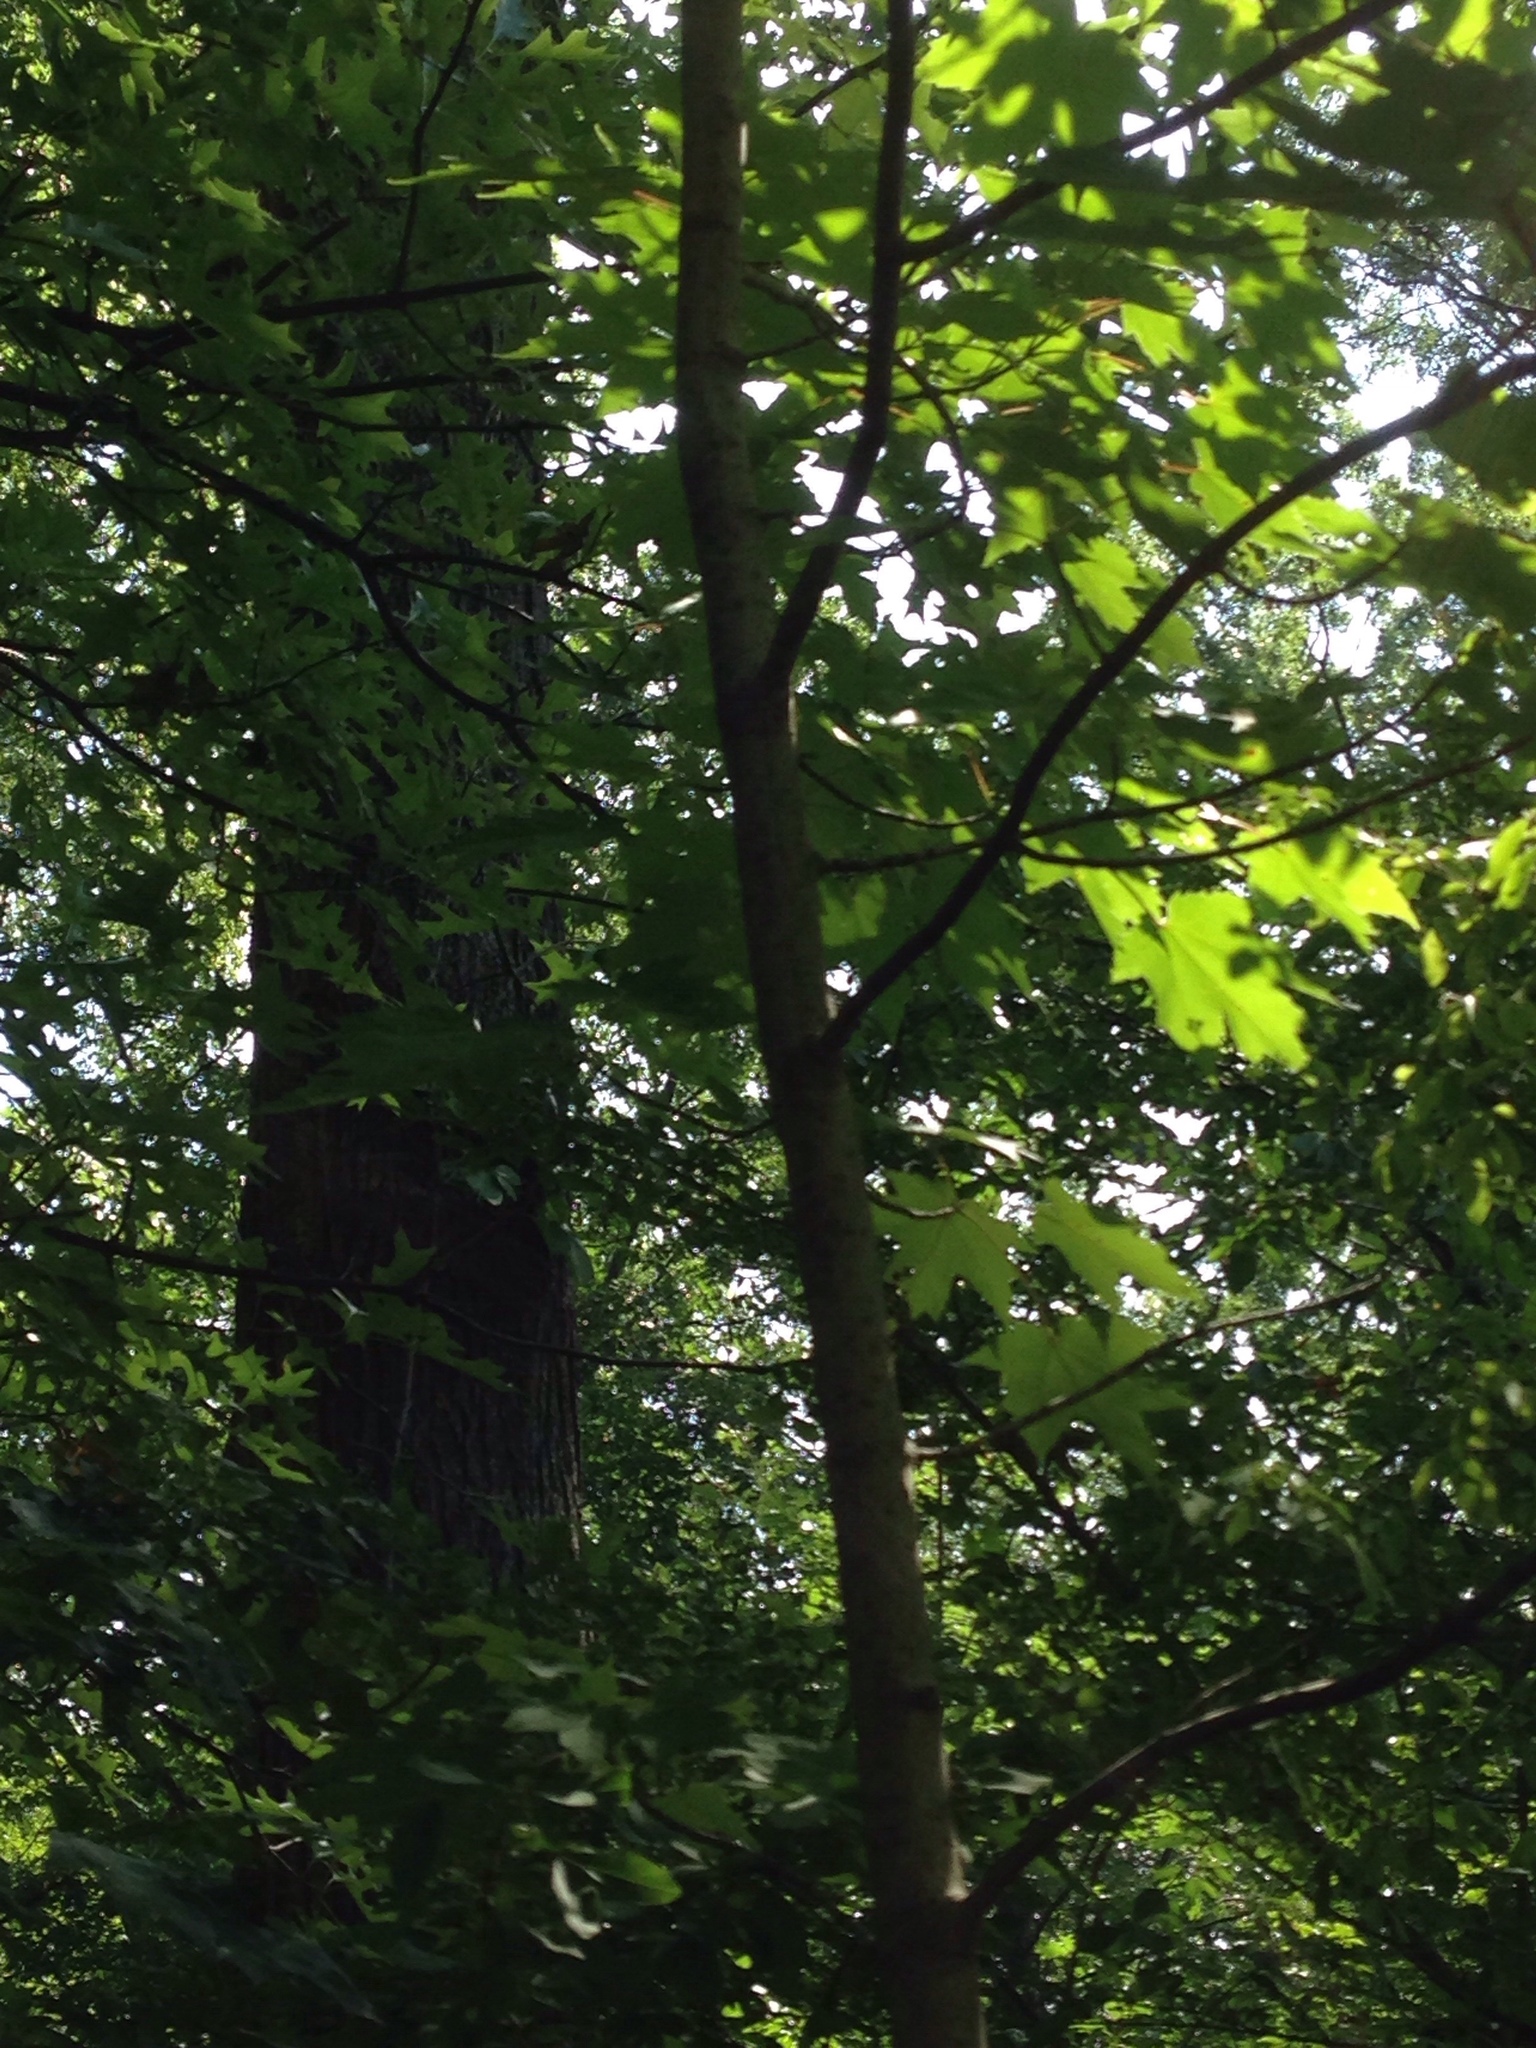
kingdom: Plantae
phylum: Tracheophyta
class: Magnoliopsida
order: Sapindales
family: Sapindaceae
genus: Acer
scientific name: Acer rubrum
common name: Red maple
